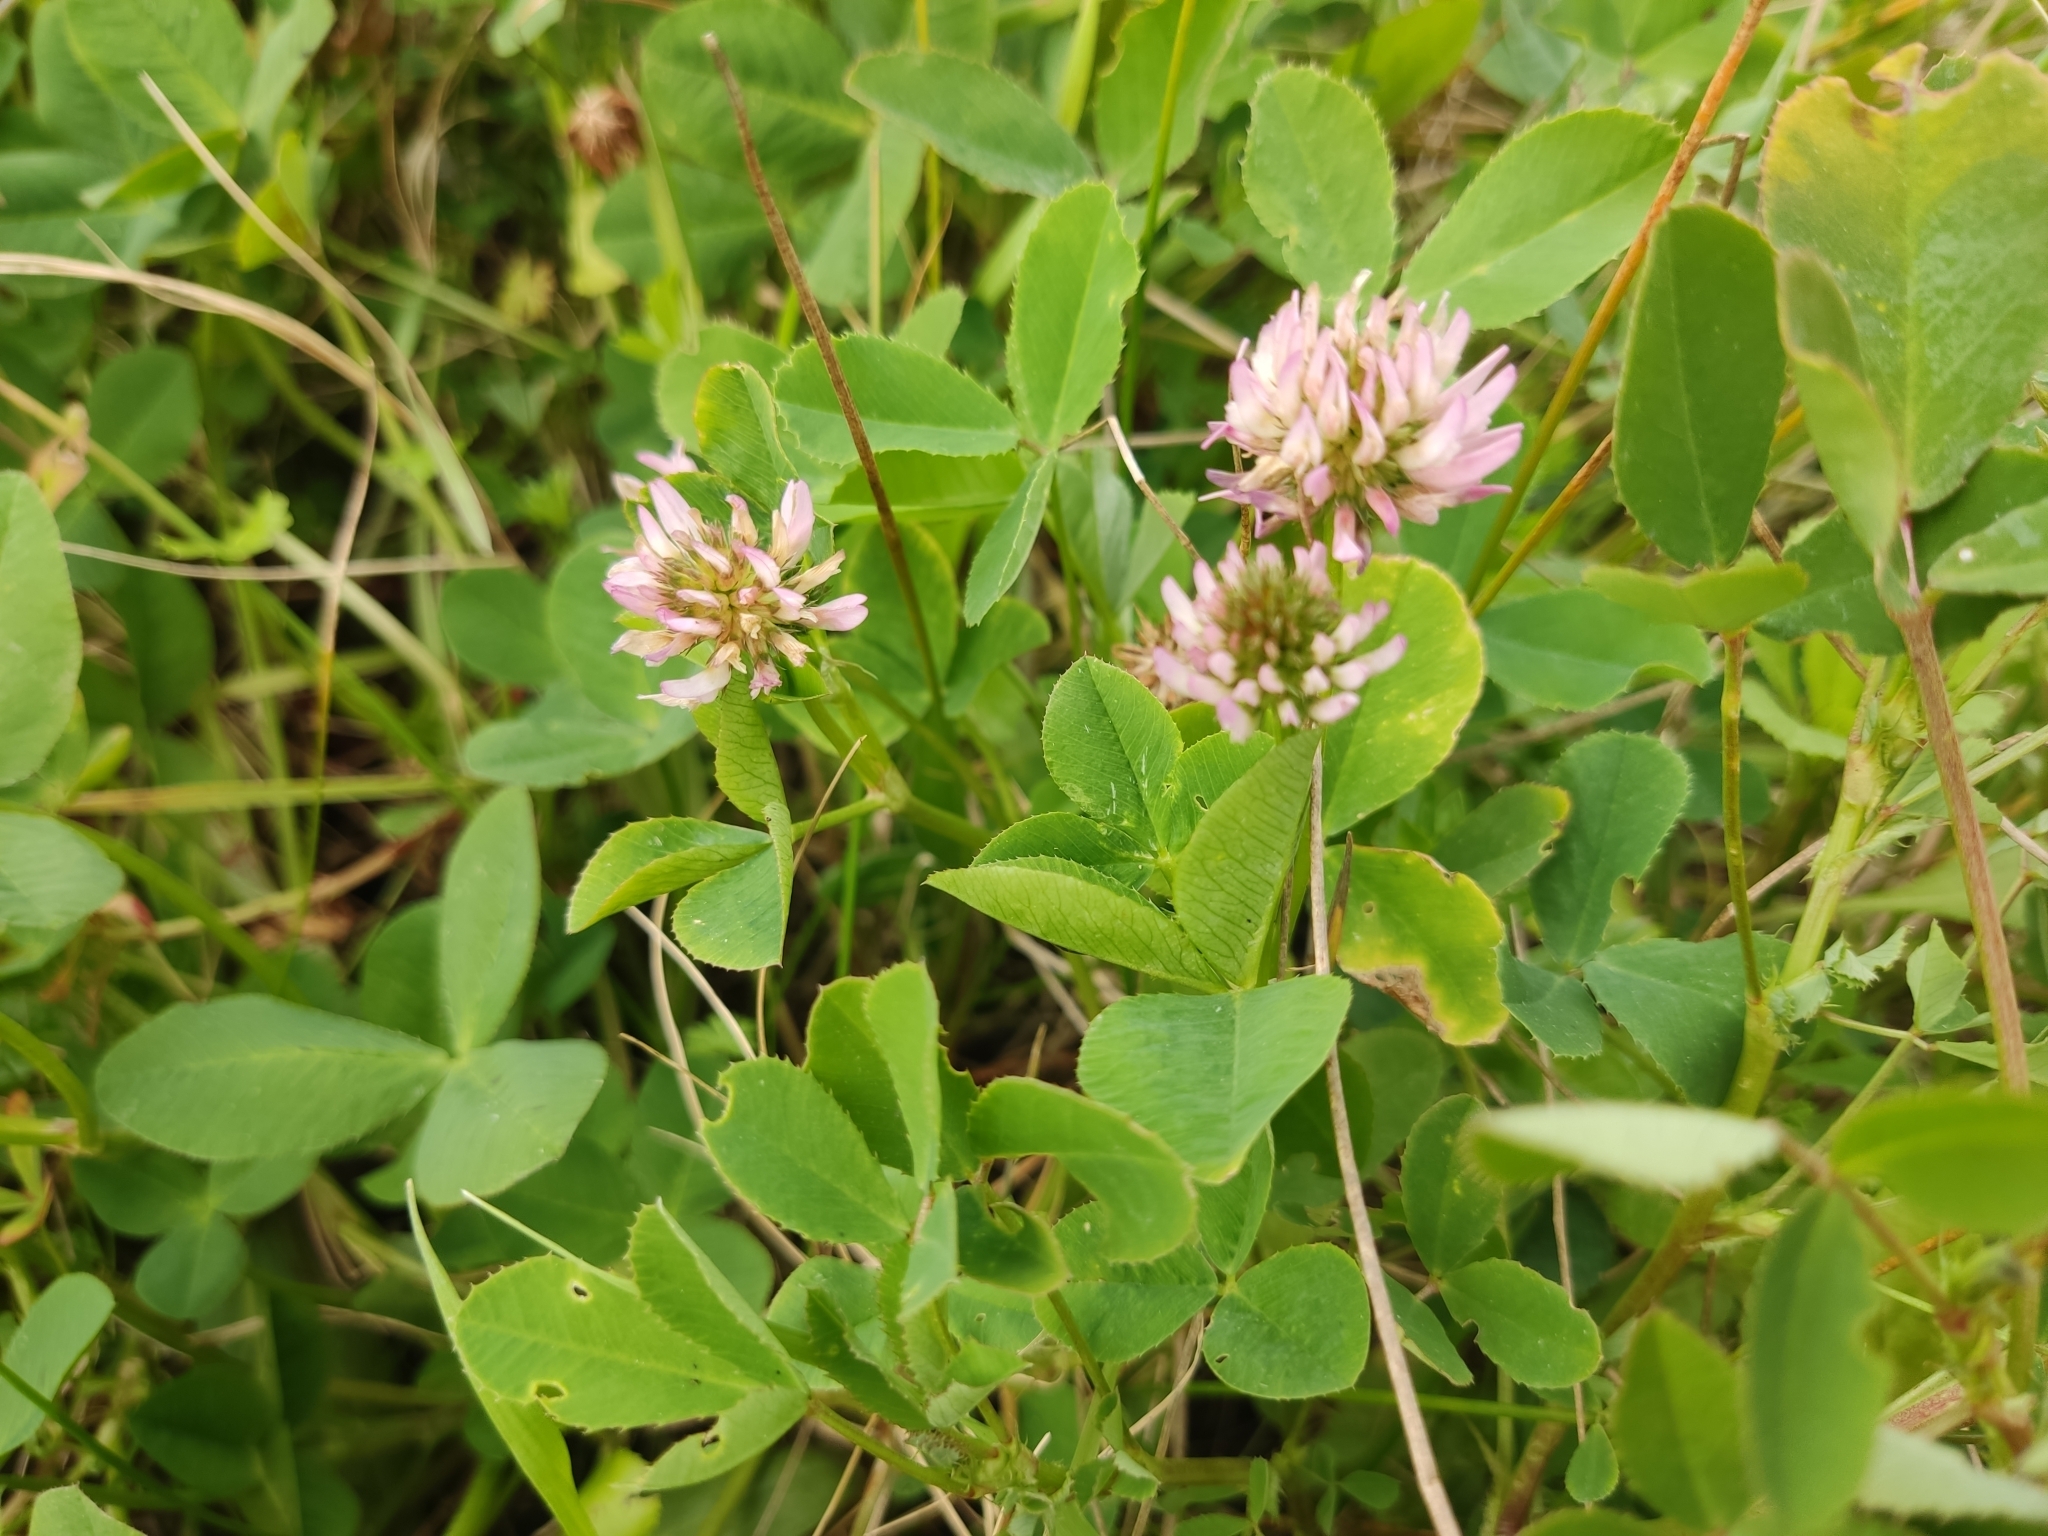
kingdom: Plantae
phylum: Tracheophyta
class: Magnoliopsida
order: Fabales
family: Fabaceae
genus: Trifolium
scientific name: Trifolium isthmocarpum
